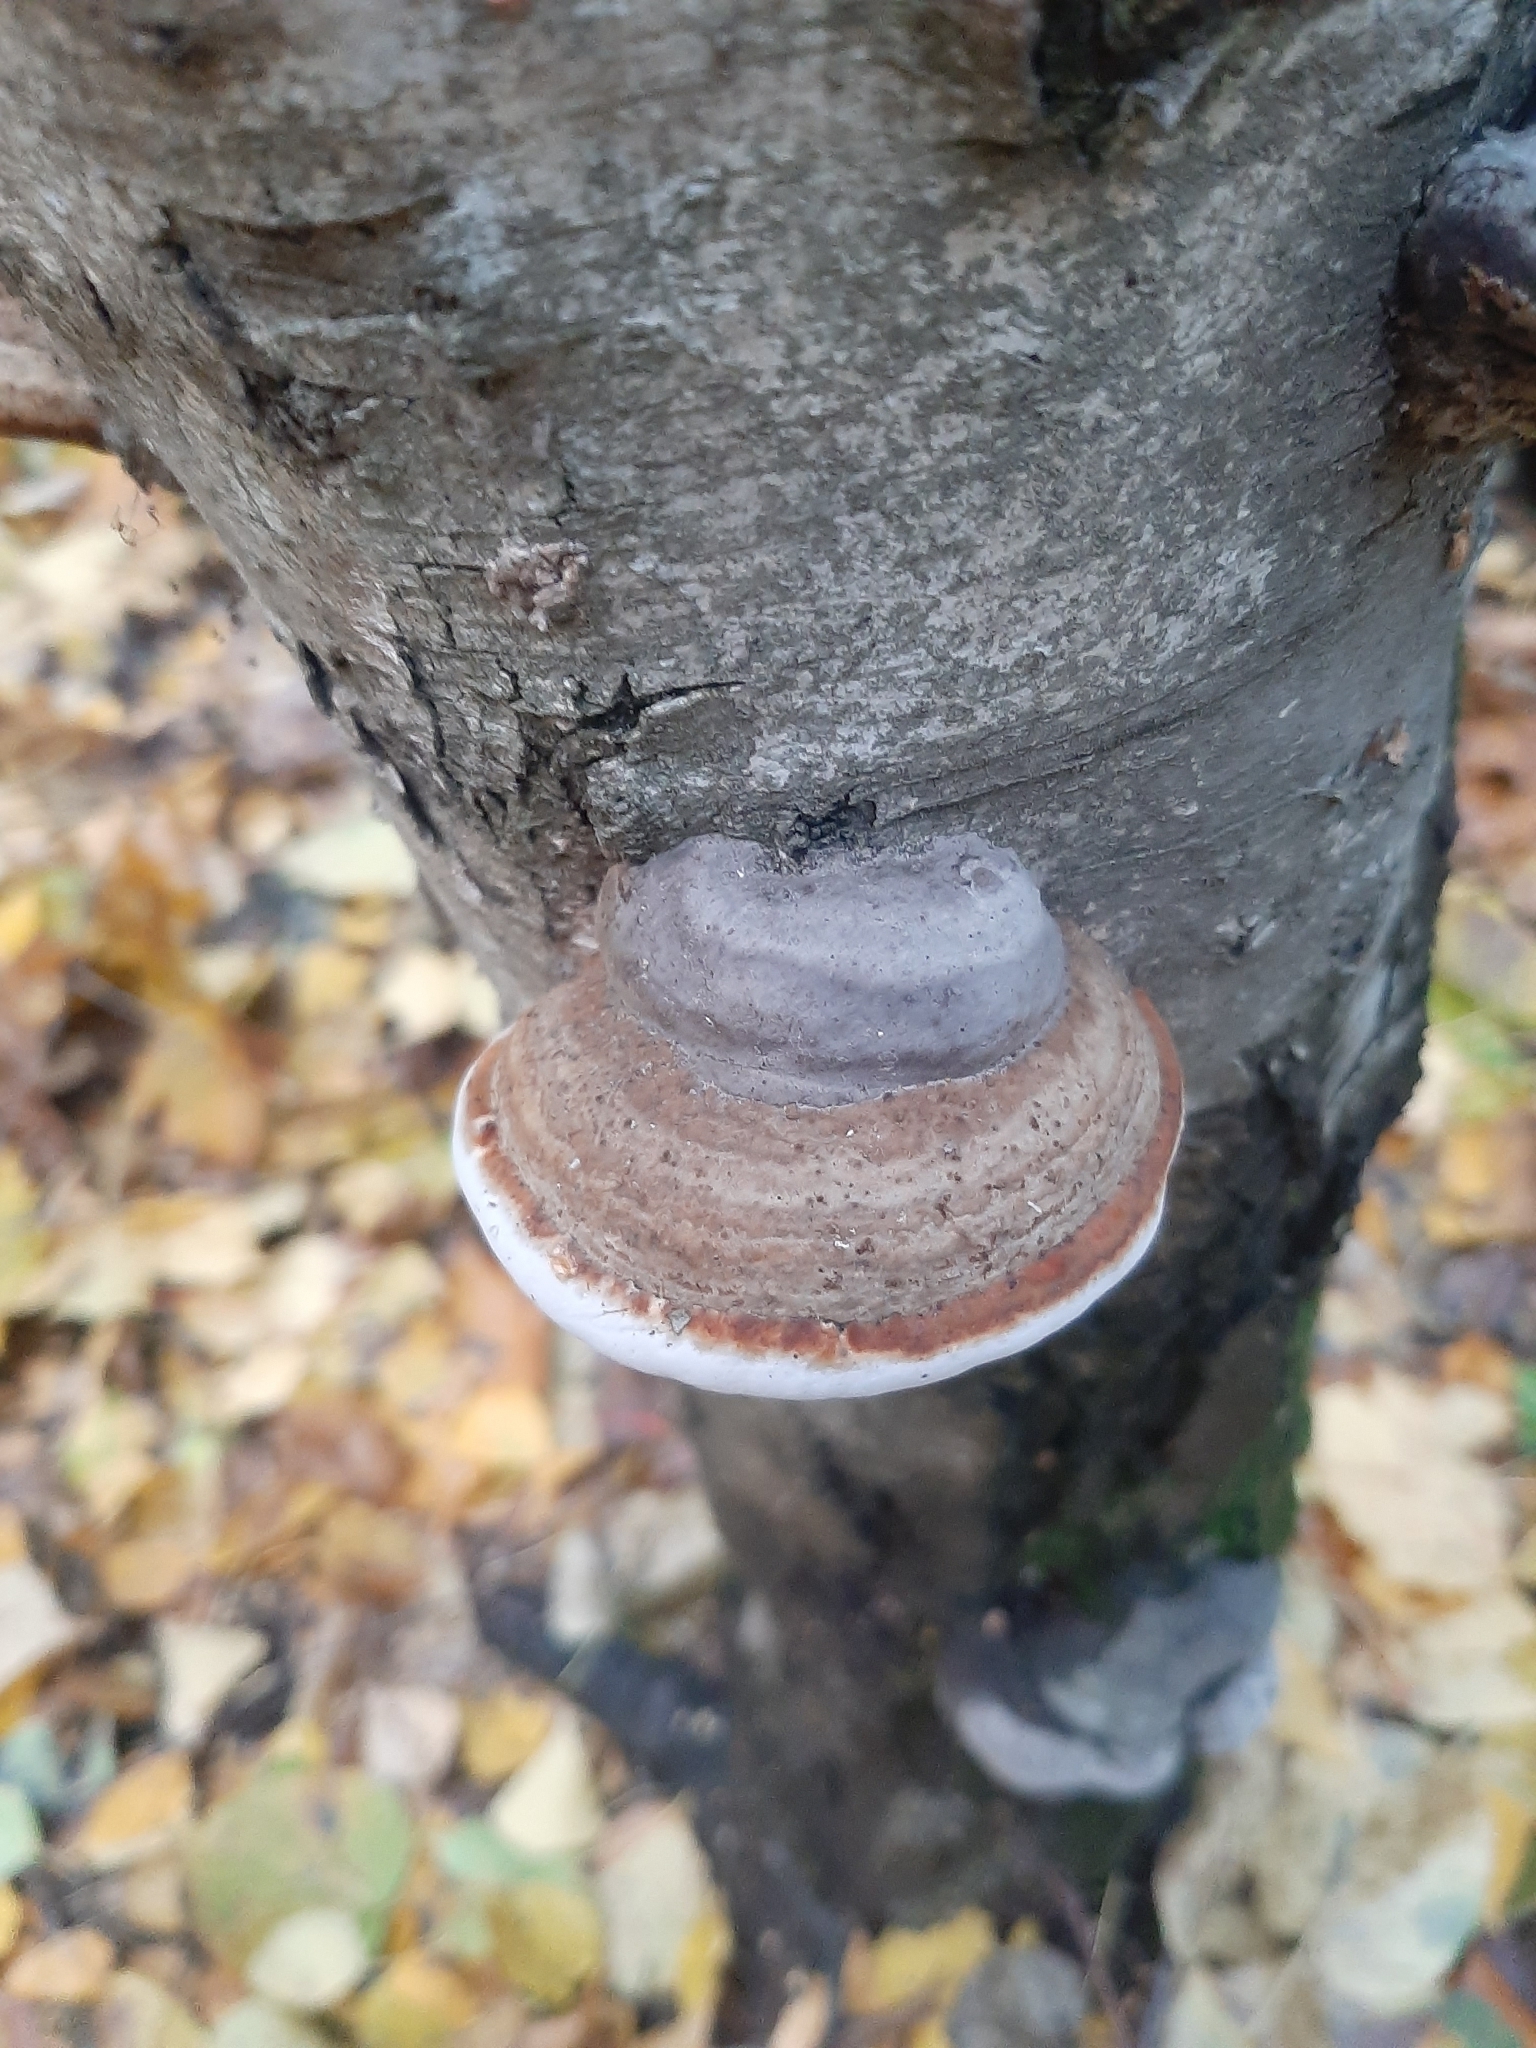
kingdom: Fungi
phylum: Basidiomycota
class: Agaricomycetes
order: Polyporales
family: Fomitopsidaceae
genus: Fomitopsis
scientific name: Fomitopsis pinicola
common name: Red-belted bracket
